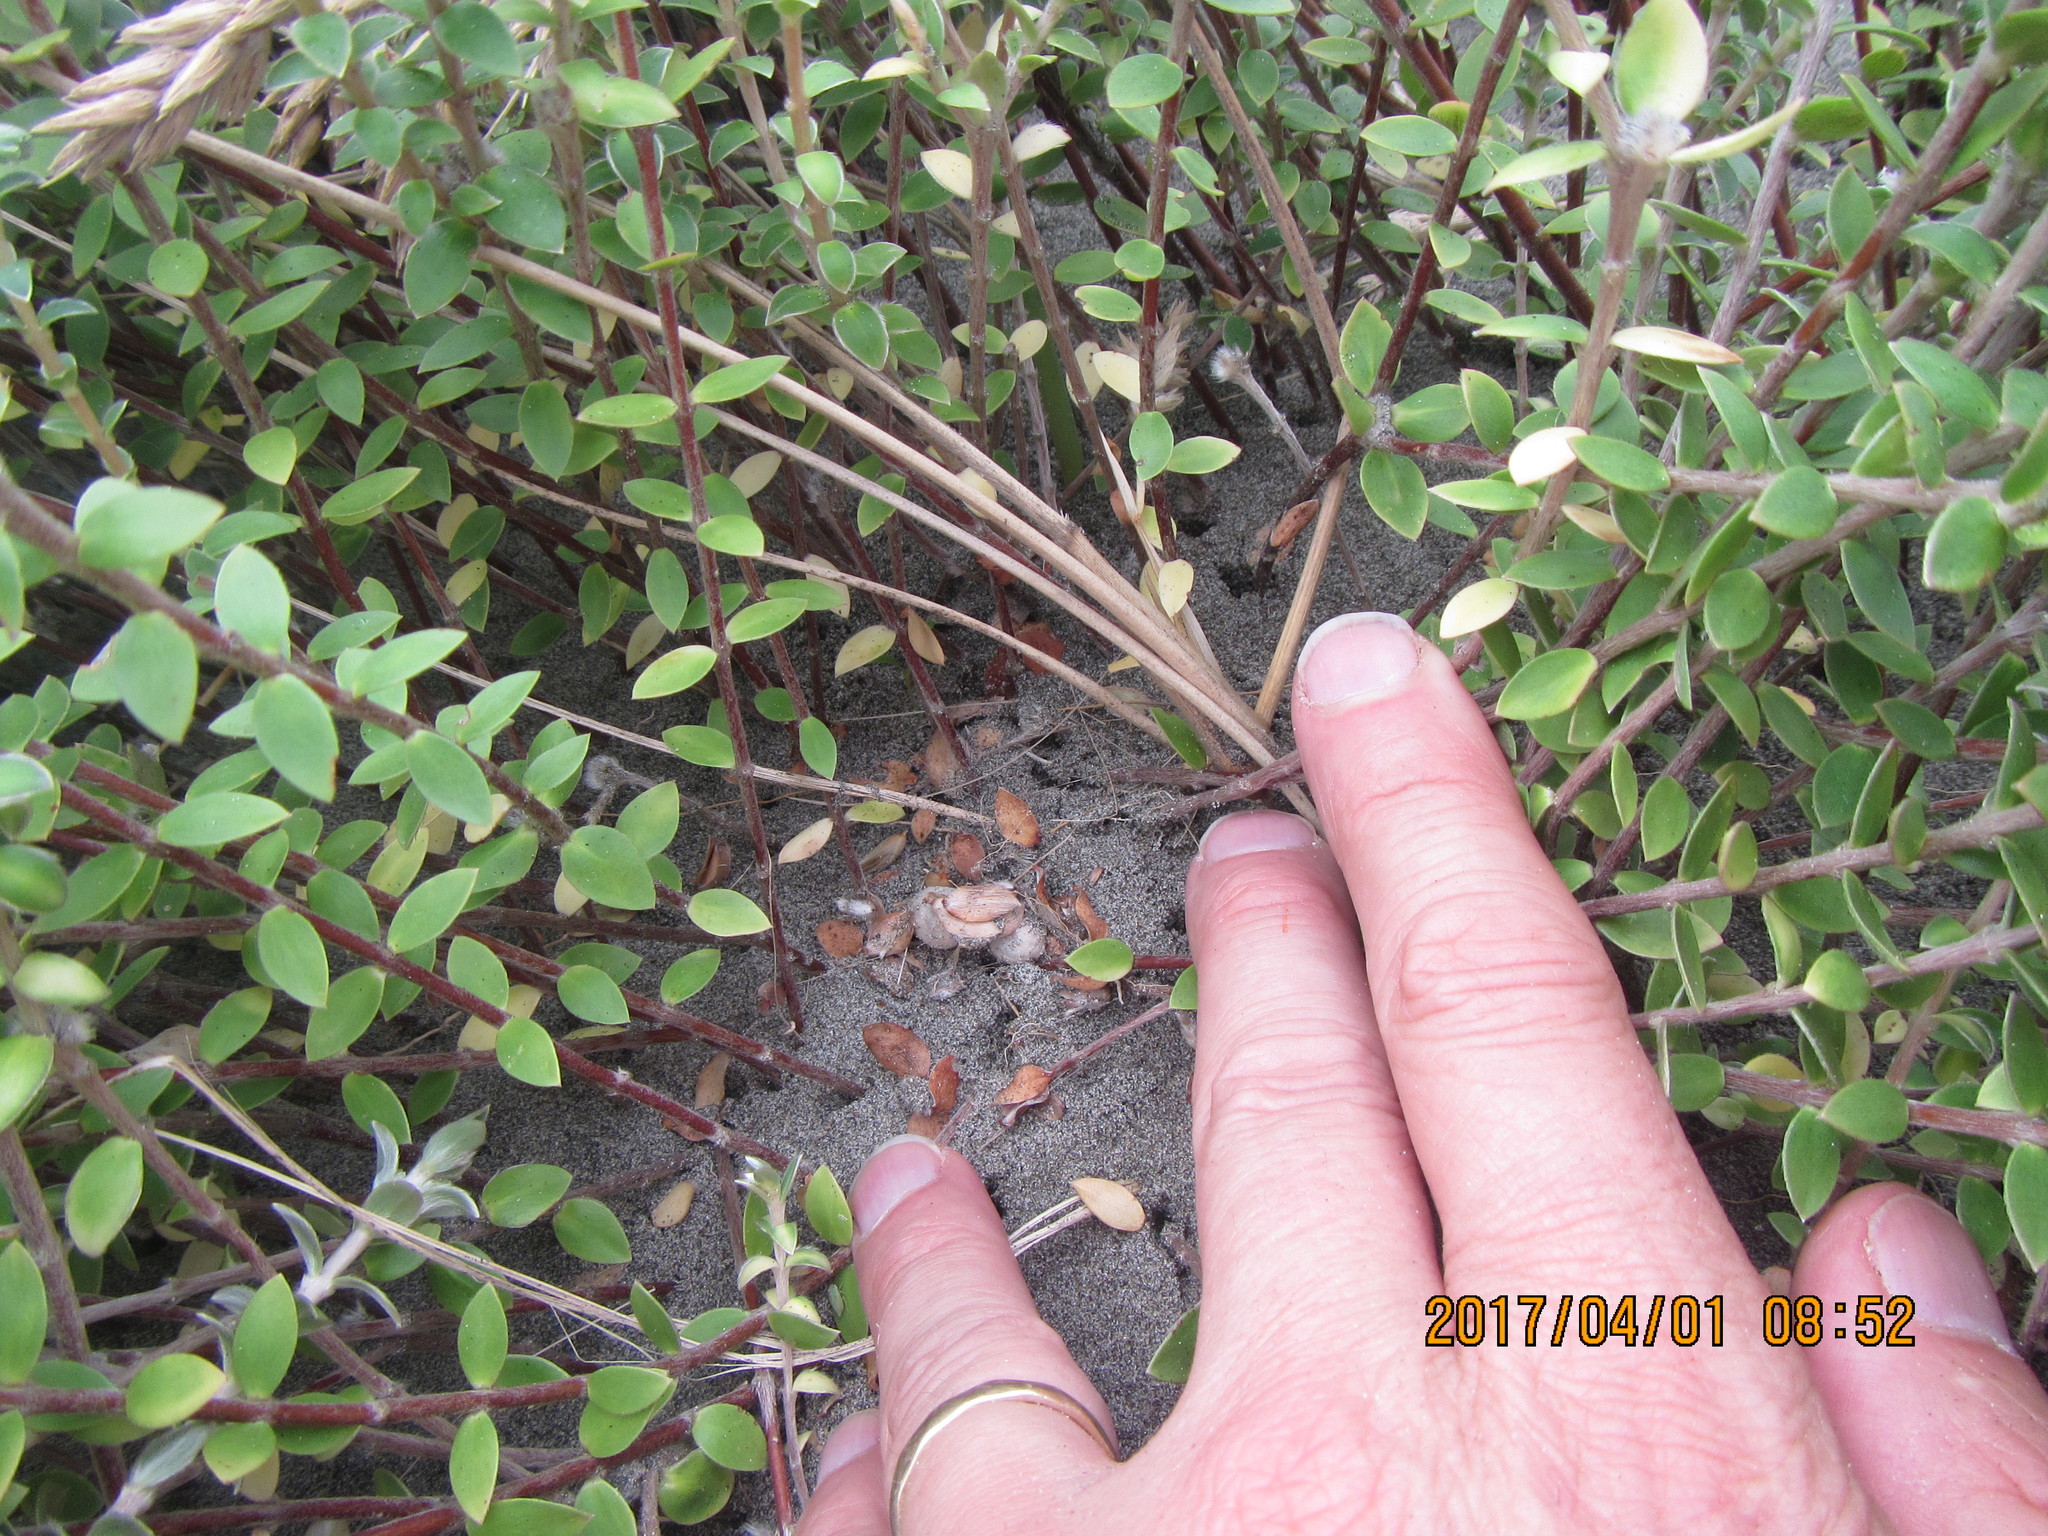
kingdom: Animalia
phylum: Arthropoda
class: Arachnida
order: Araneae
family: Theridiidae
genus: Latrodectus
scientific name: Latrodectus katipo
